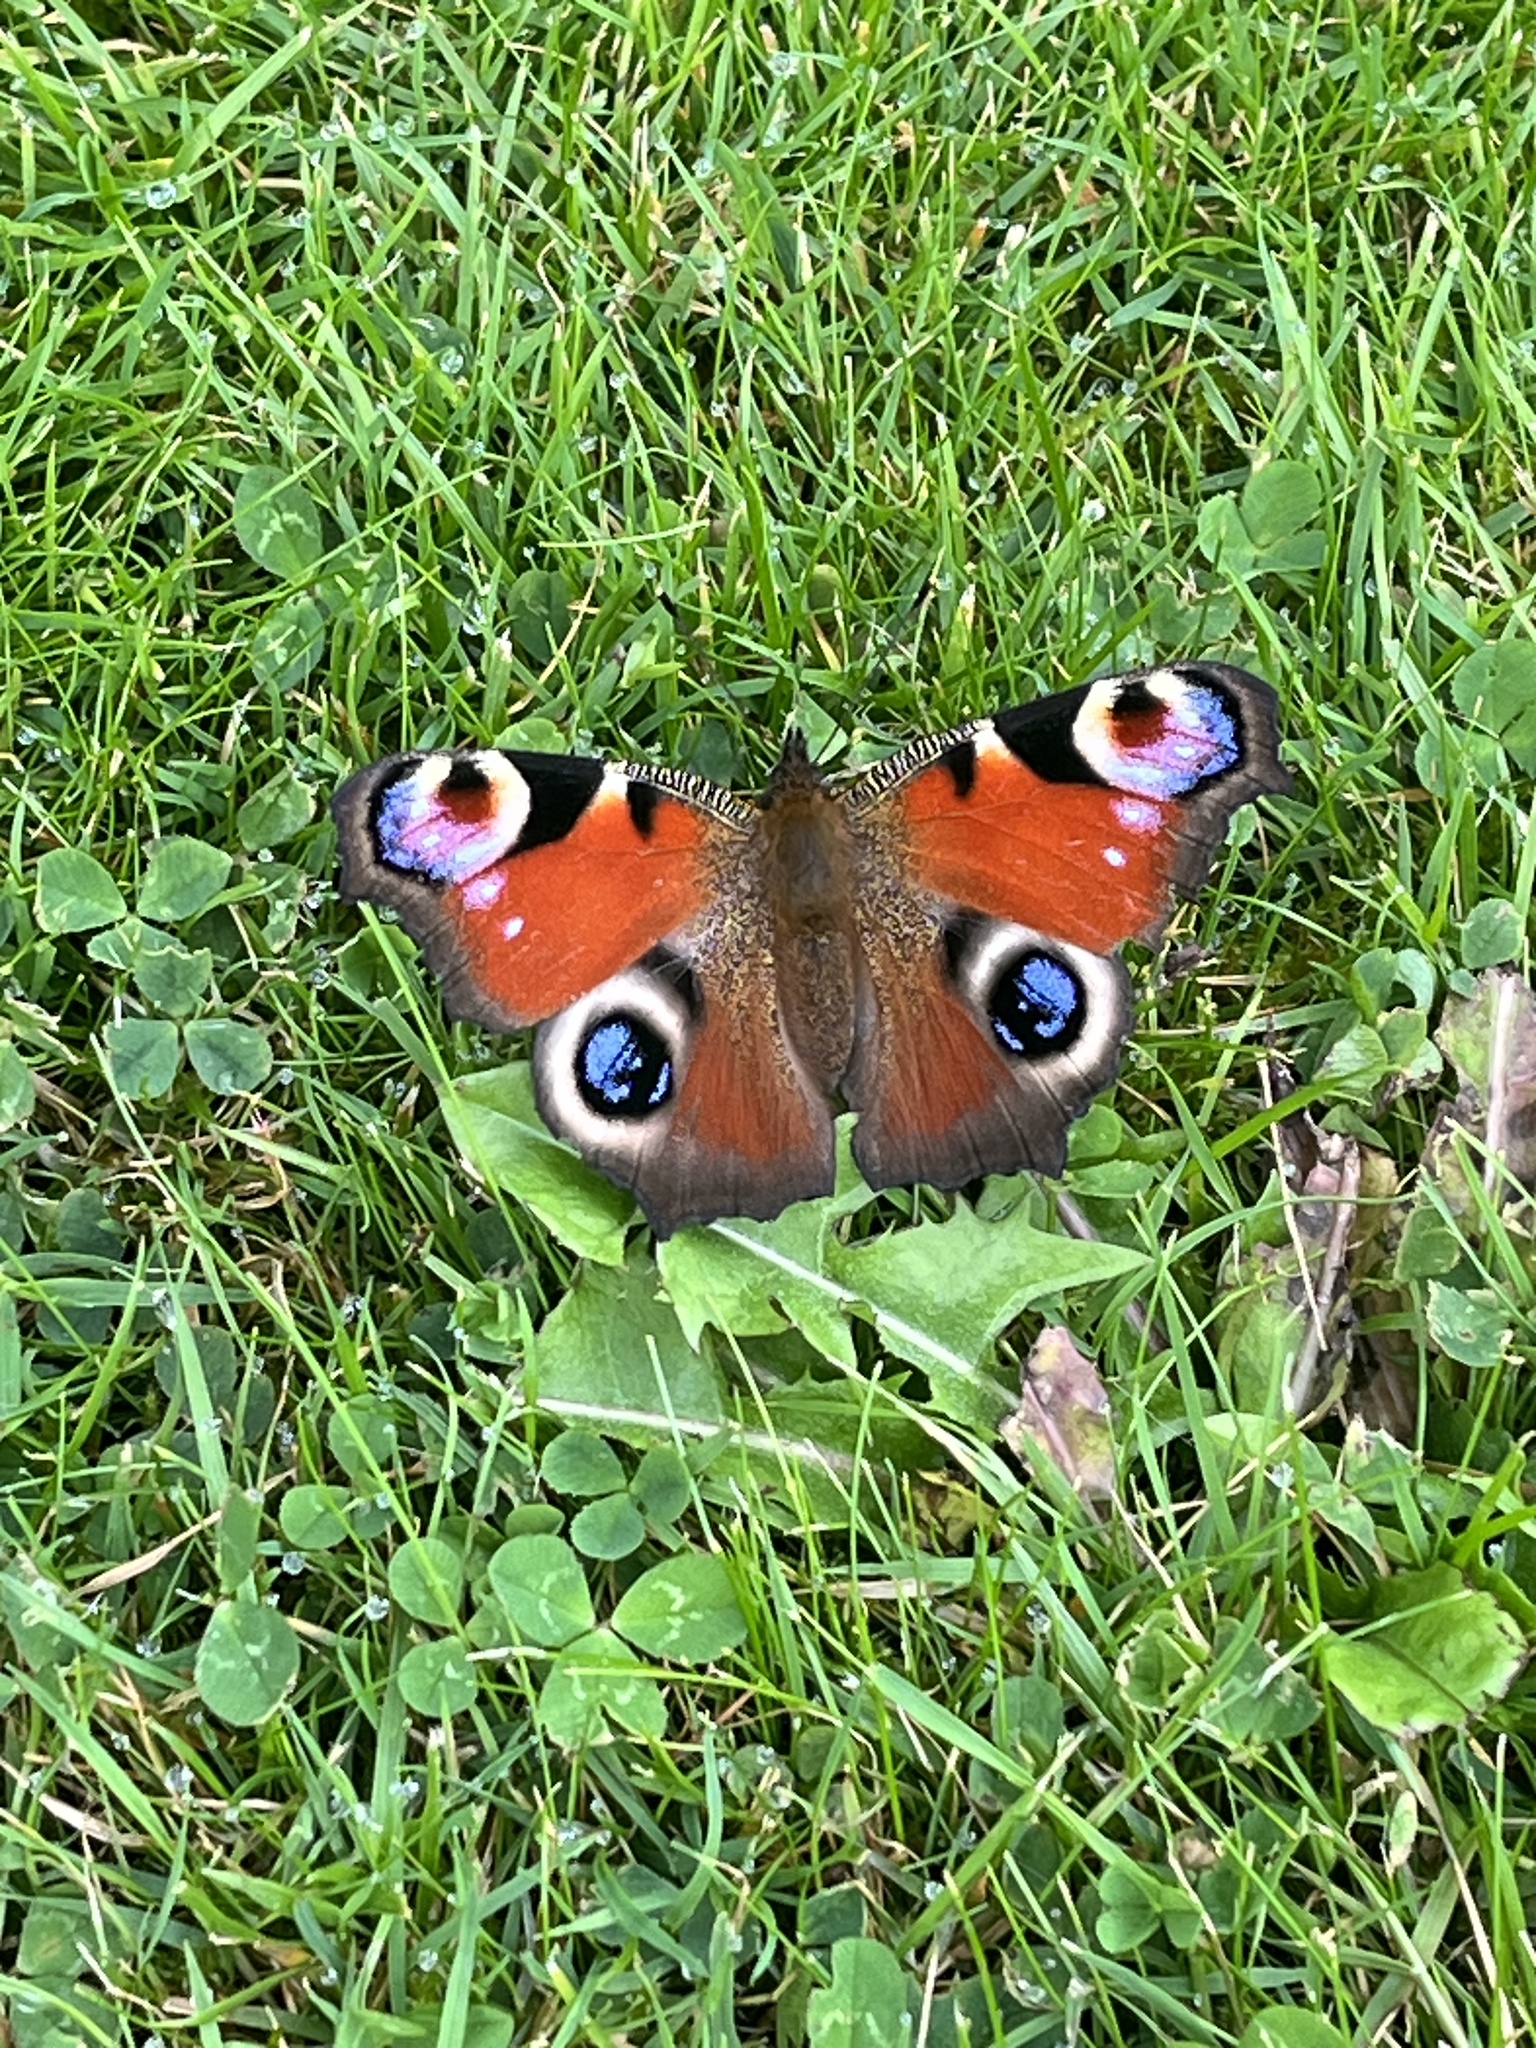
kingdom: Animalia
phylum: Arthropoda
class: Insecta
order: Lepidoptera
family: Nymphalidae
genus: Aglais
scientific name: Aglais io
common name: Peacock
